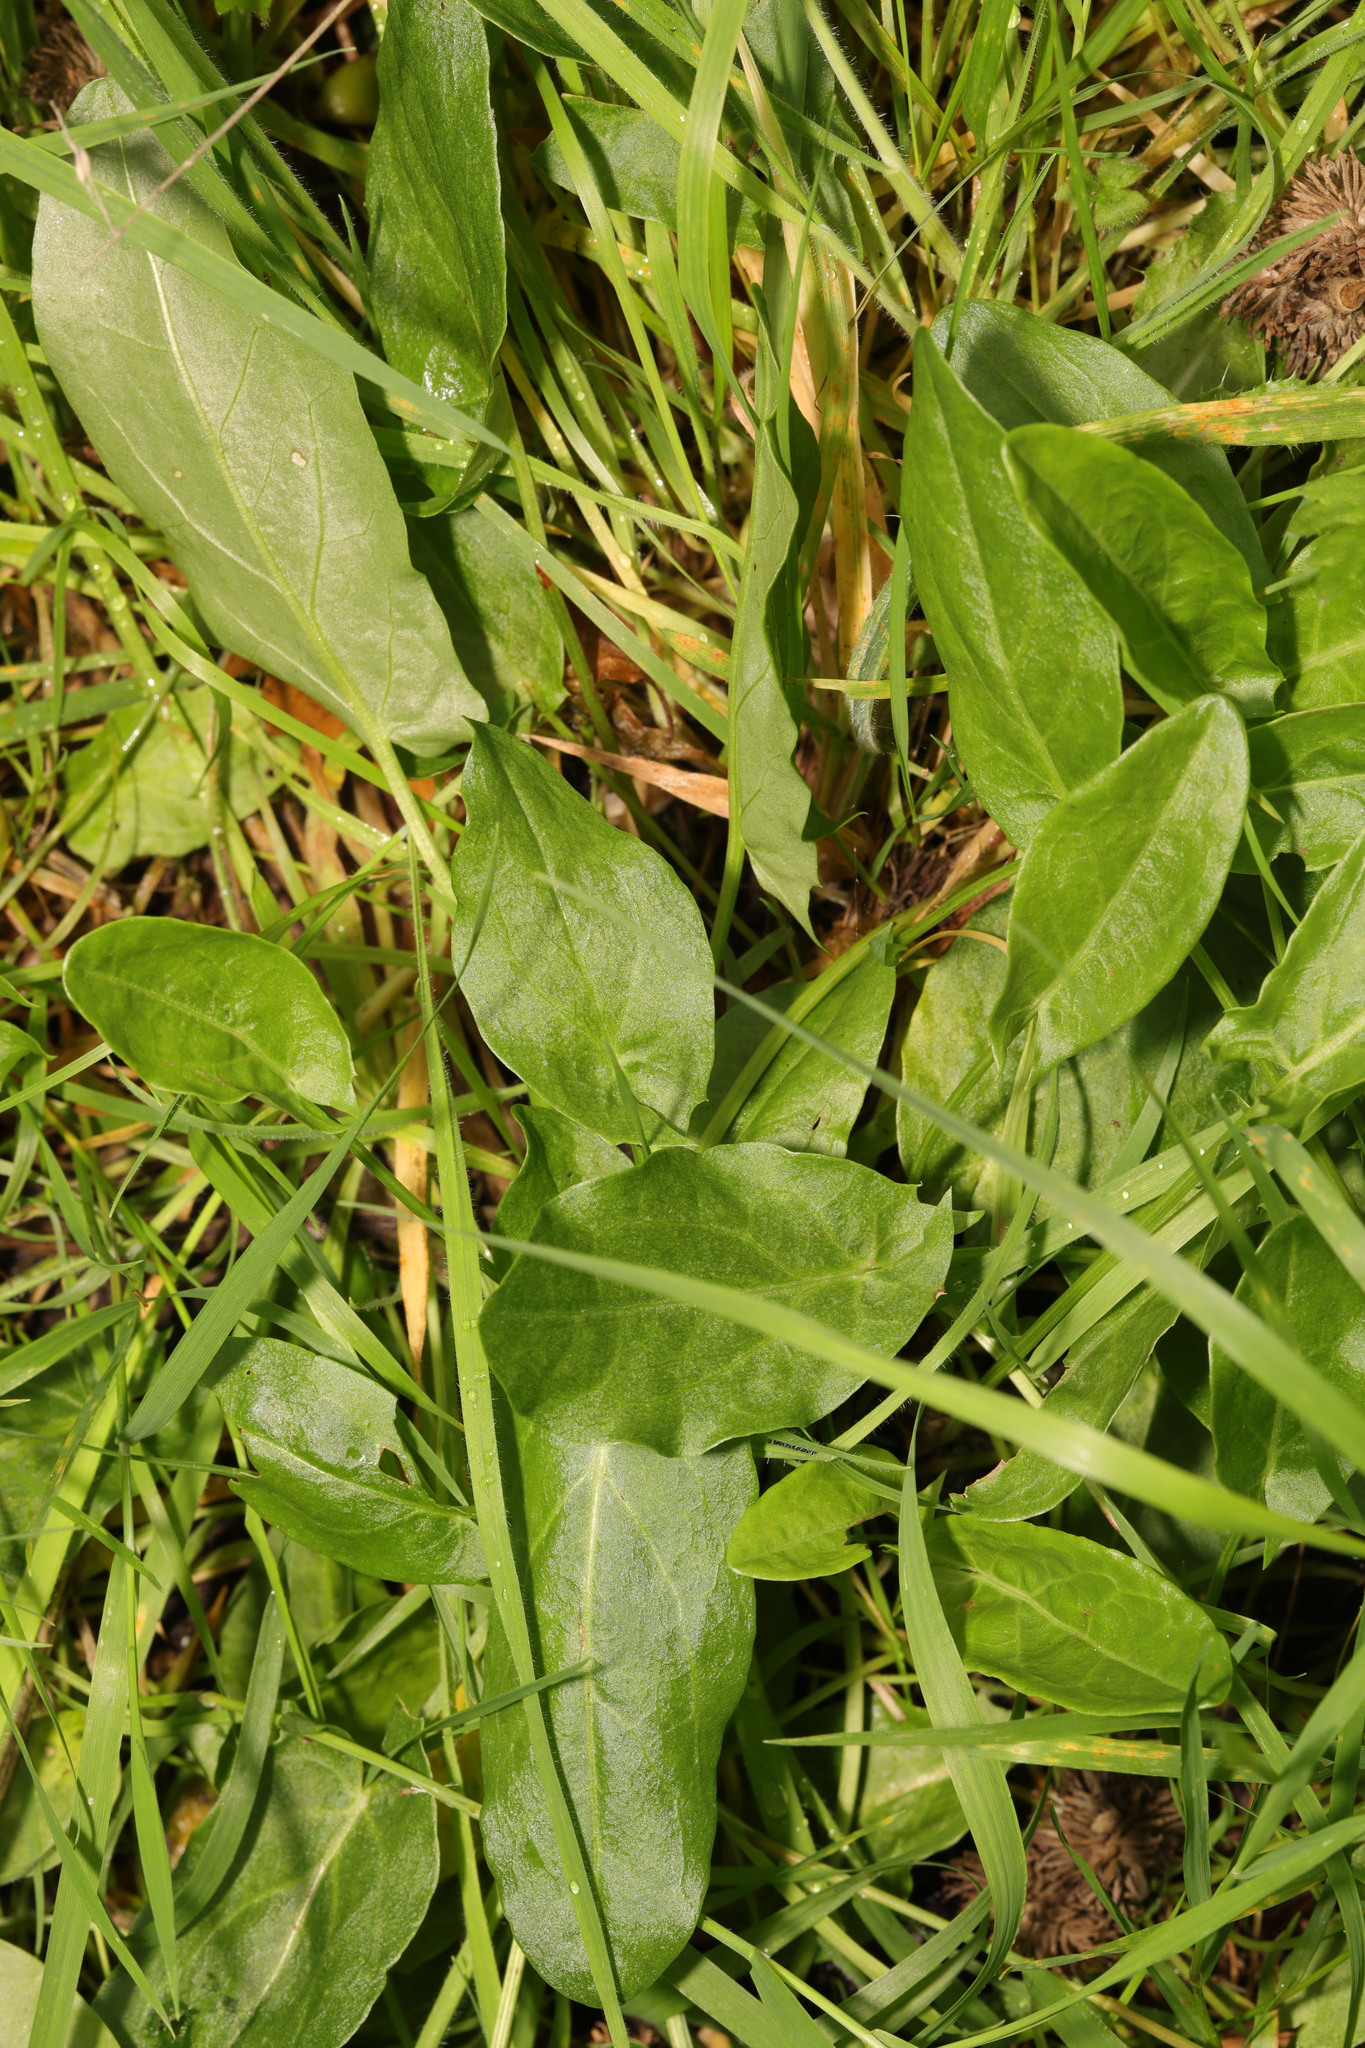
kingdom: Plantae
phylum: Tracheophyta
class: Magnoliopsida
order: Caryophyllales
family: Polygonaceae
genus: Rumex
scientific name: Rumex acetosa
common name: Garden sorrel
